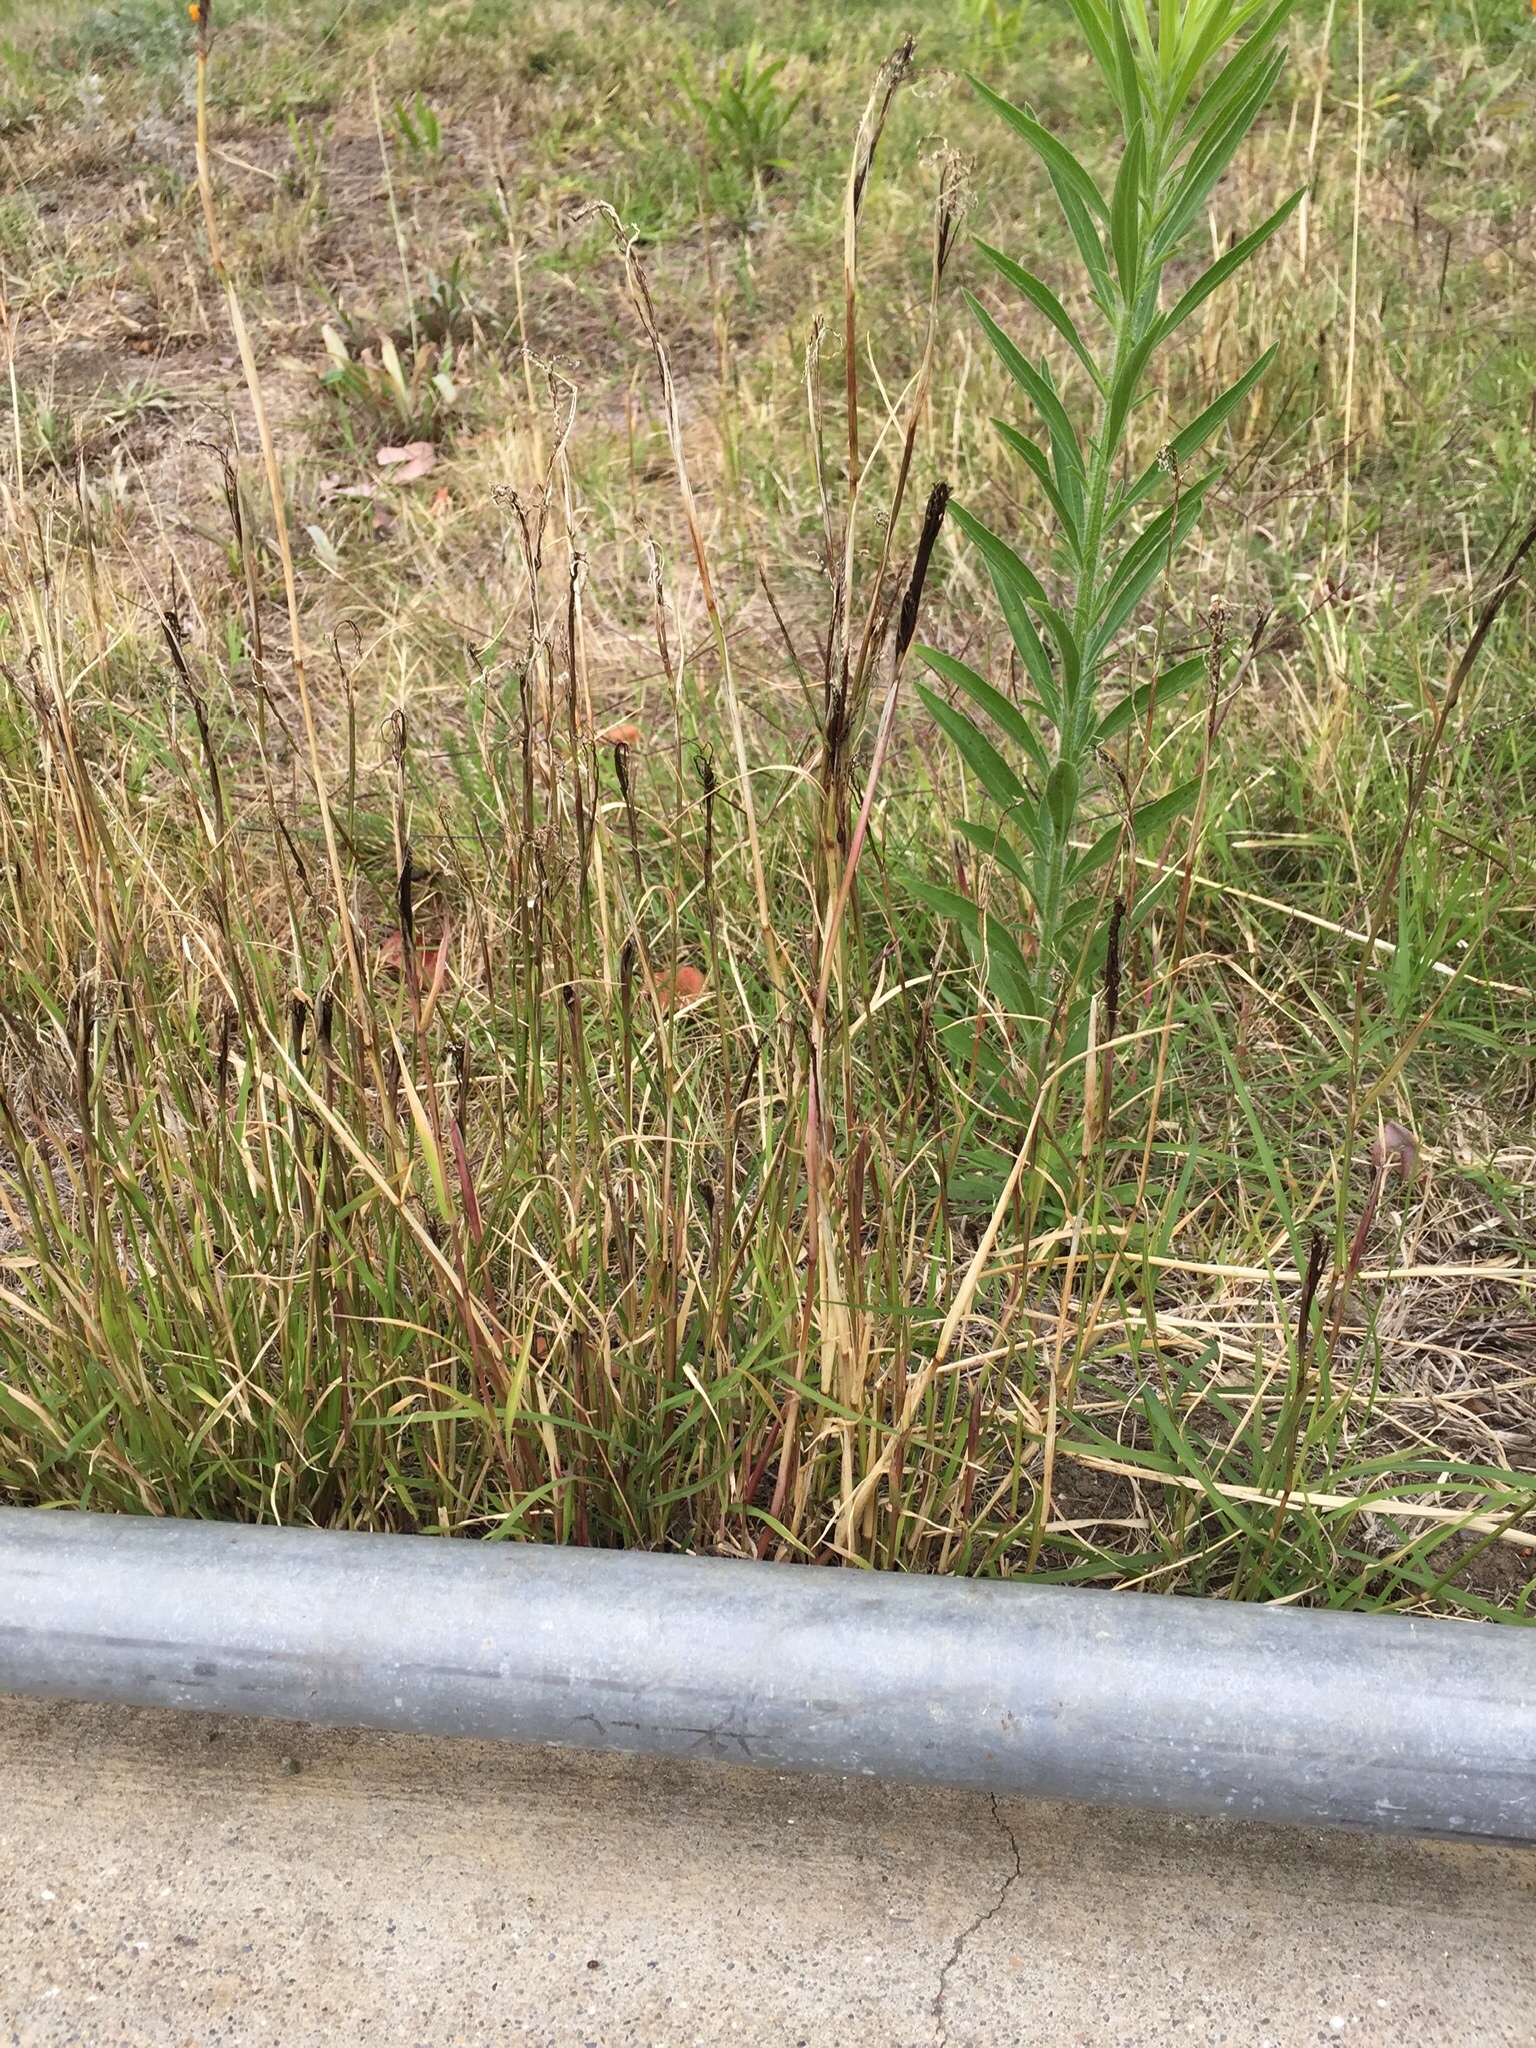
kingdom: Fungi
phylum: Basidiomycota
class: Ustilaginomycetes
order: Ustilaginales
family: Ustilaginaceae
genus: Ustilago
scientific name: Ustilago cynodontis
